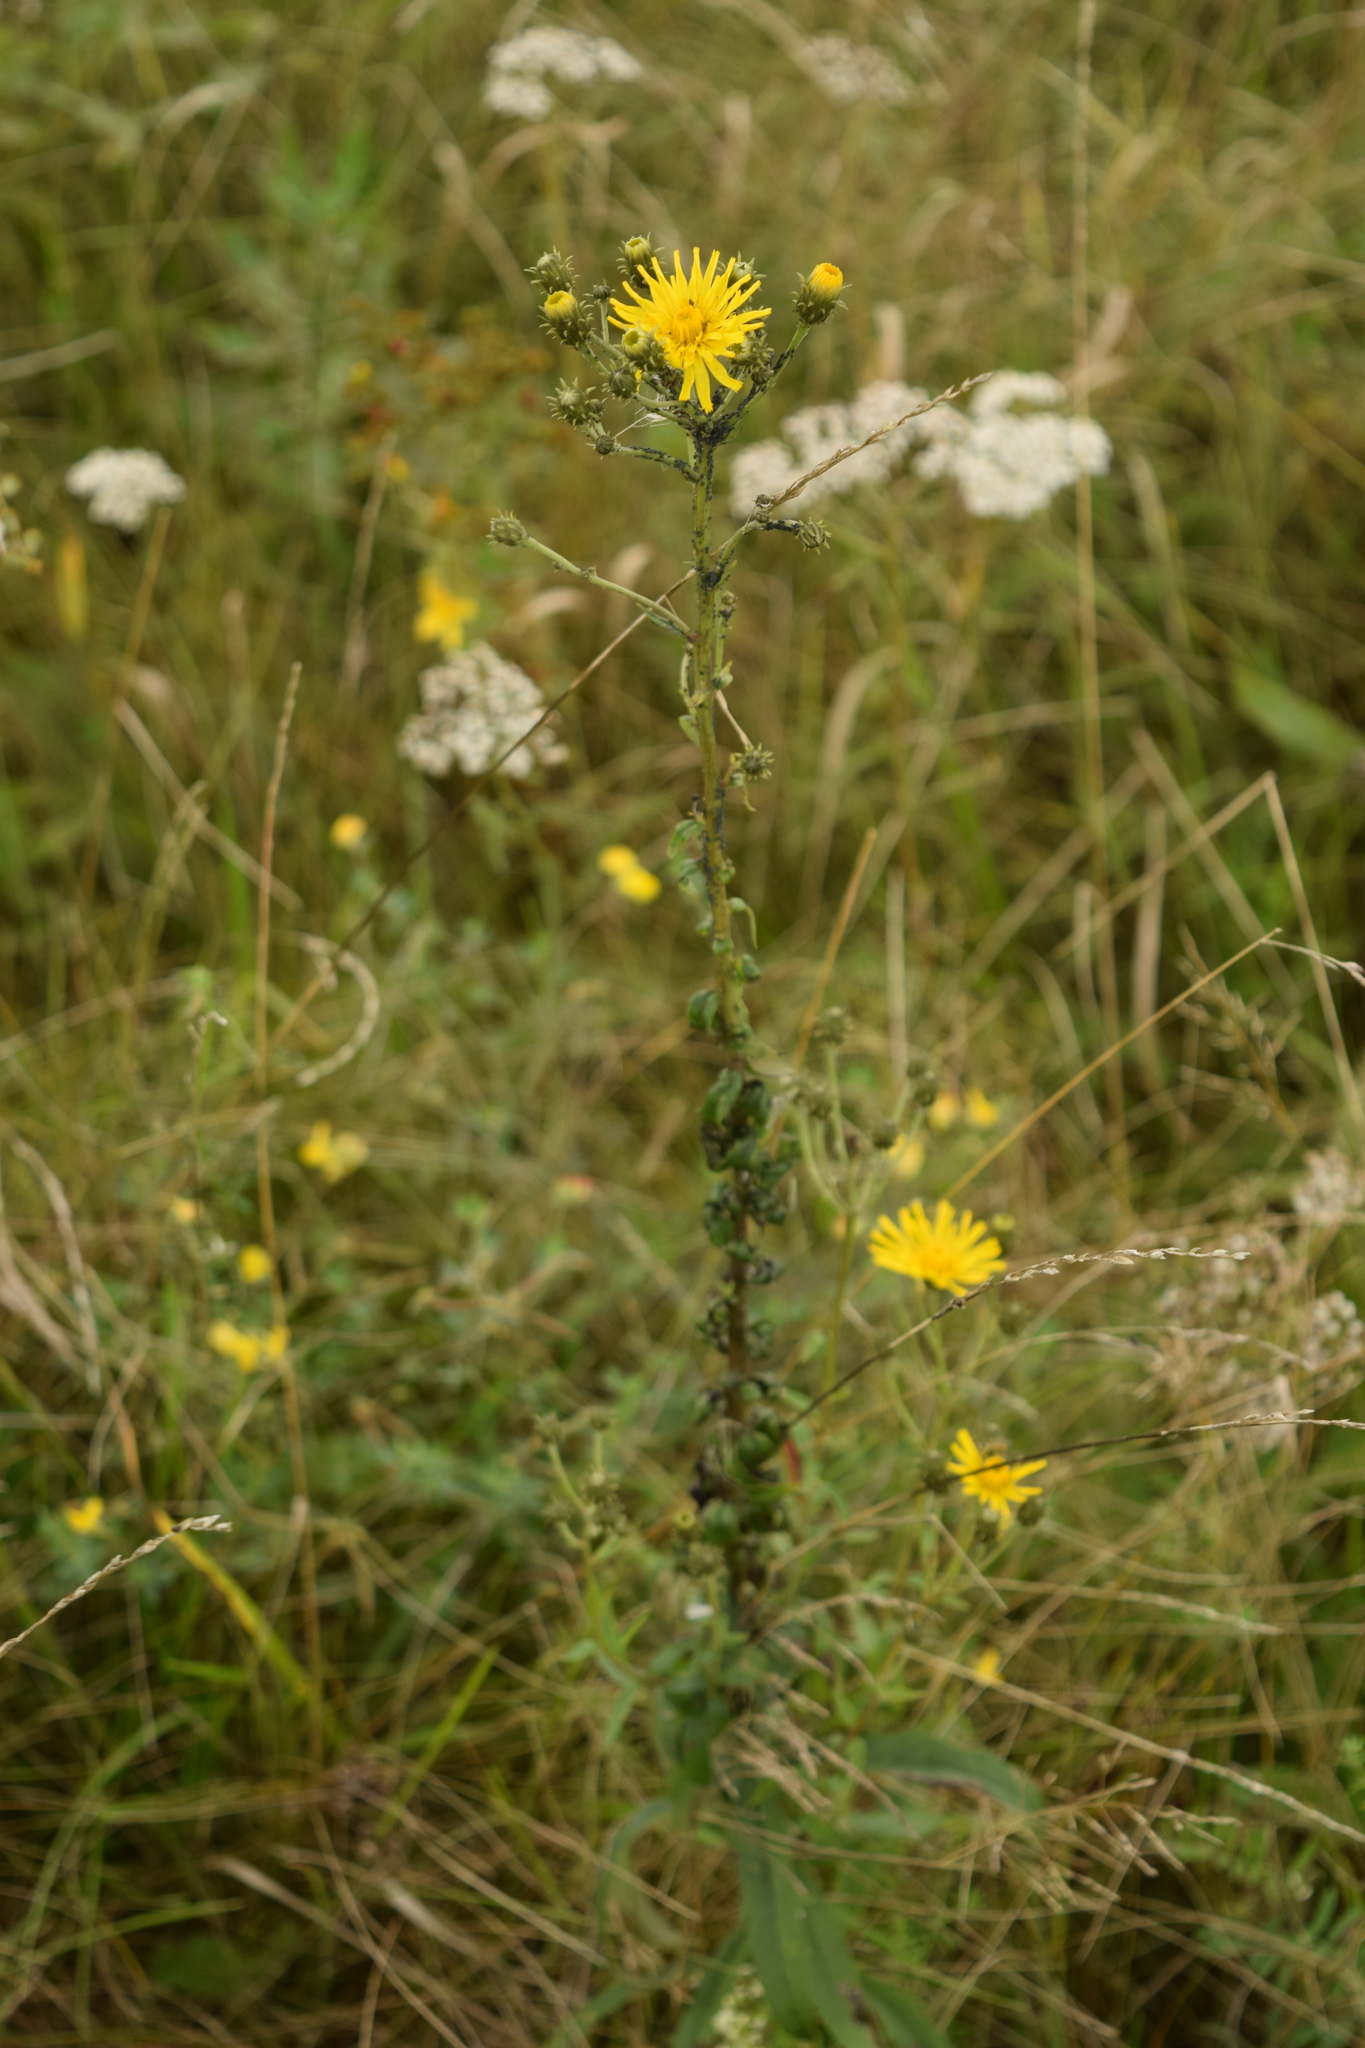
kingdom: Plantae
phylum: Tracheophyta
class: Magnoliopsida
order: Asterales
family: Asteraceae
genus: Hieracium
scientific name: Hieracium umbellatum
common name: Northern hawkweed
